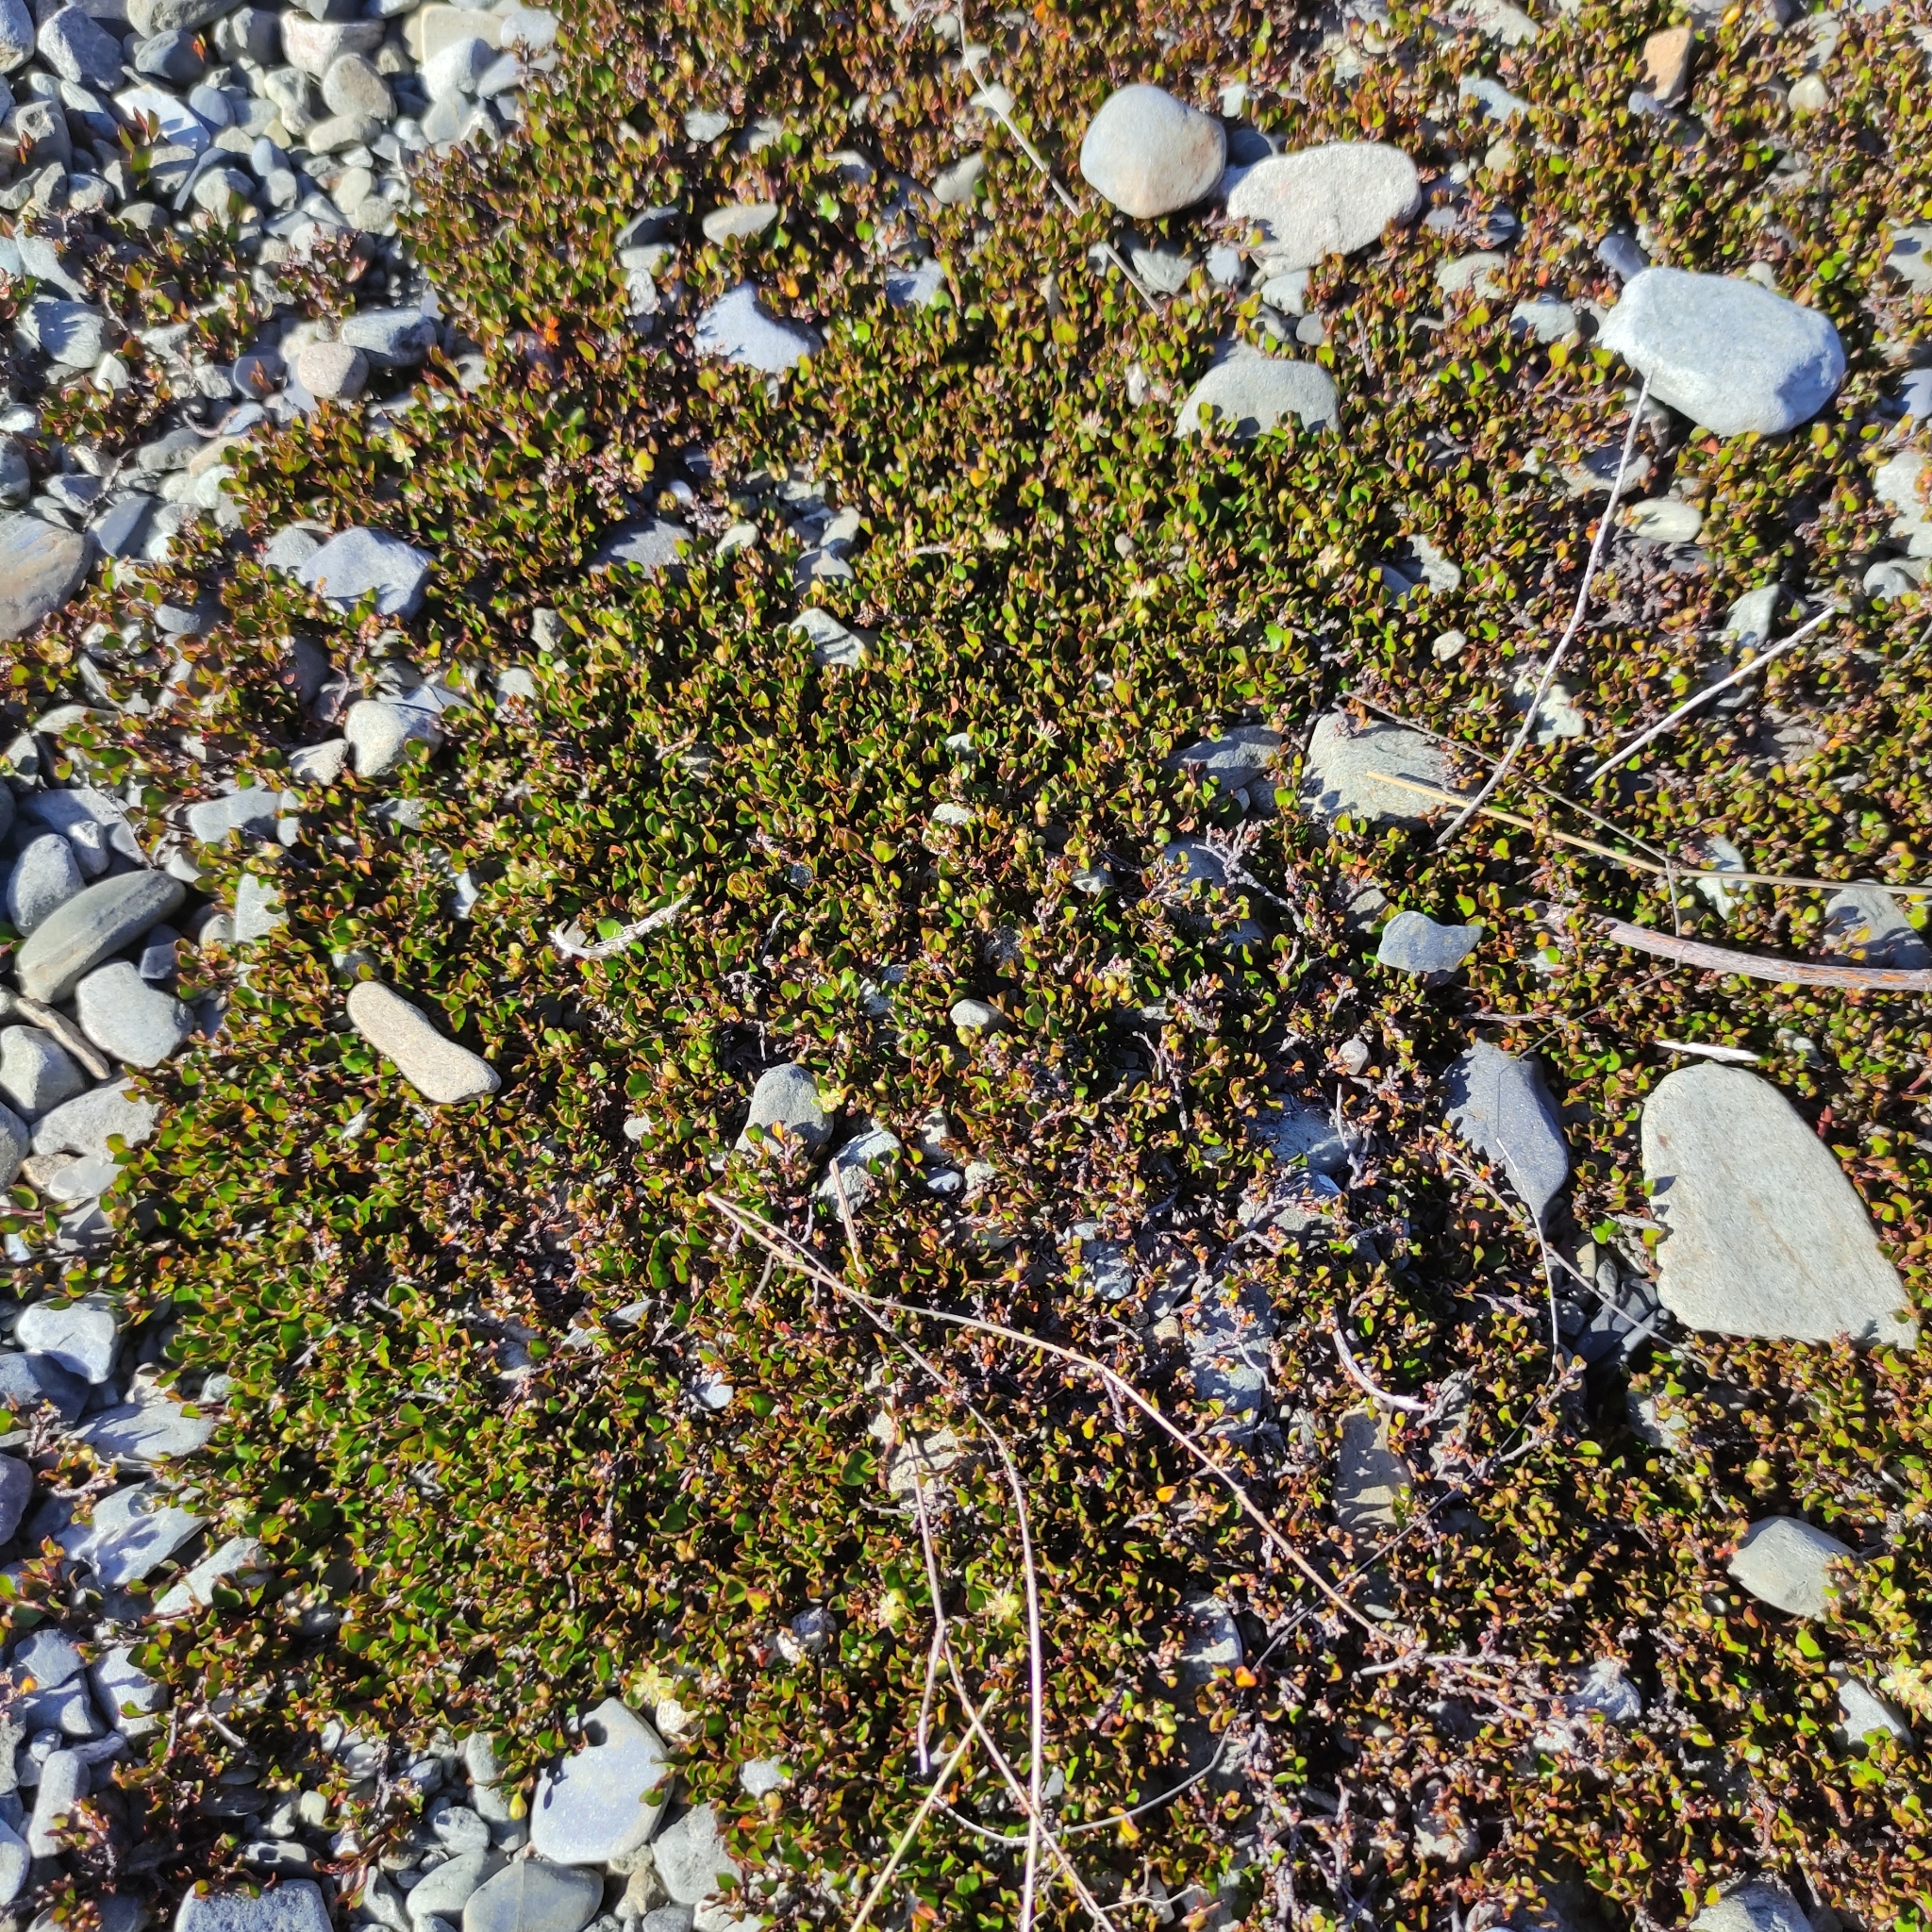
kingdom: Plantae
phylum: Tracheophyta
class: Magnoliopsida
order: Caryophyllales
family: Polygonaceae
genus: Muehlenbeckia
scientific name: Muehlenbeckia axillaris
